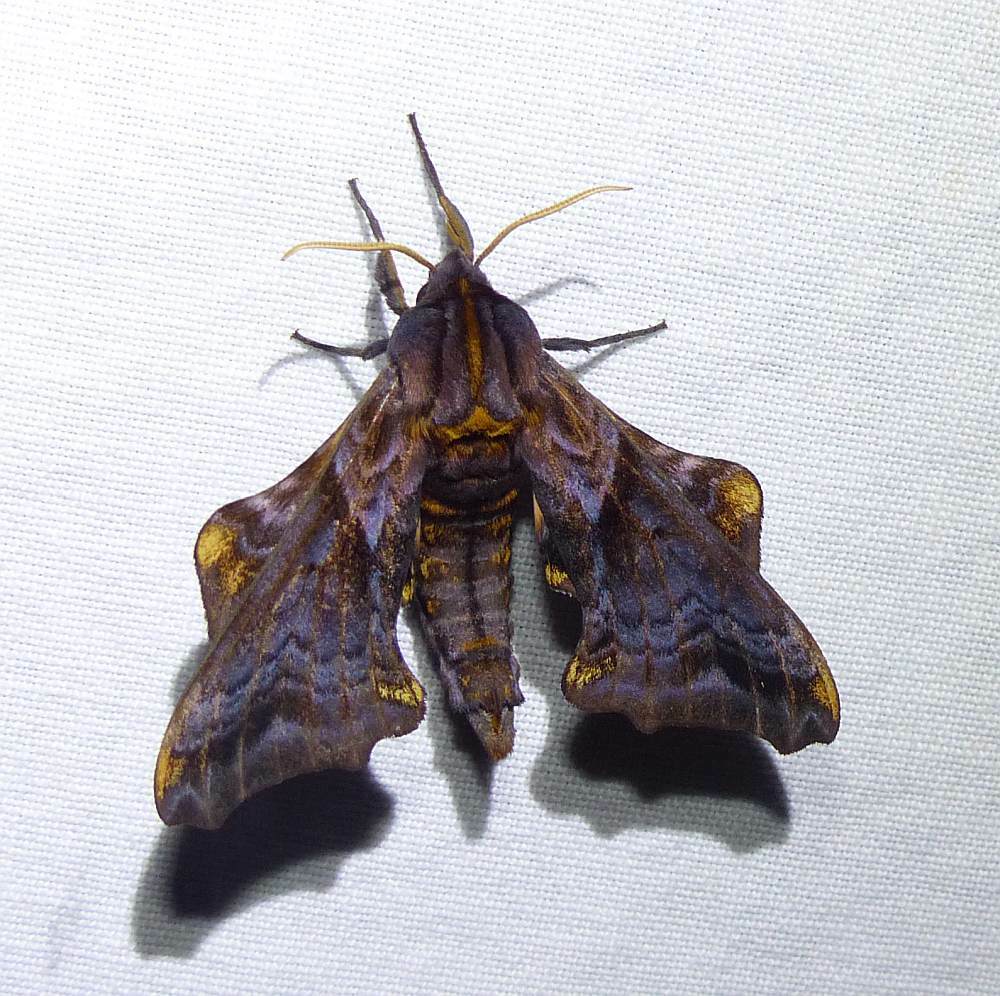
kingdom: Animalia
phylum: Arthropoda
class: Insecta
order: Lepidoptera
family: Sphingidae
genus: Paonias
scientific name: Paonias myops
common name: Small-eyed sphinx
